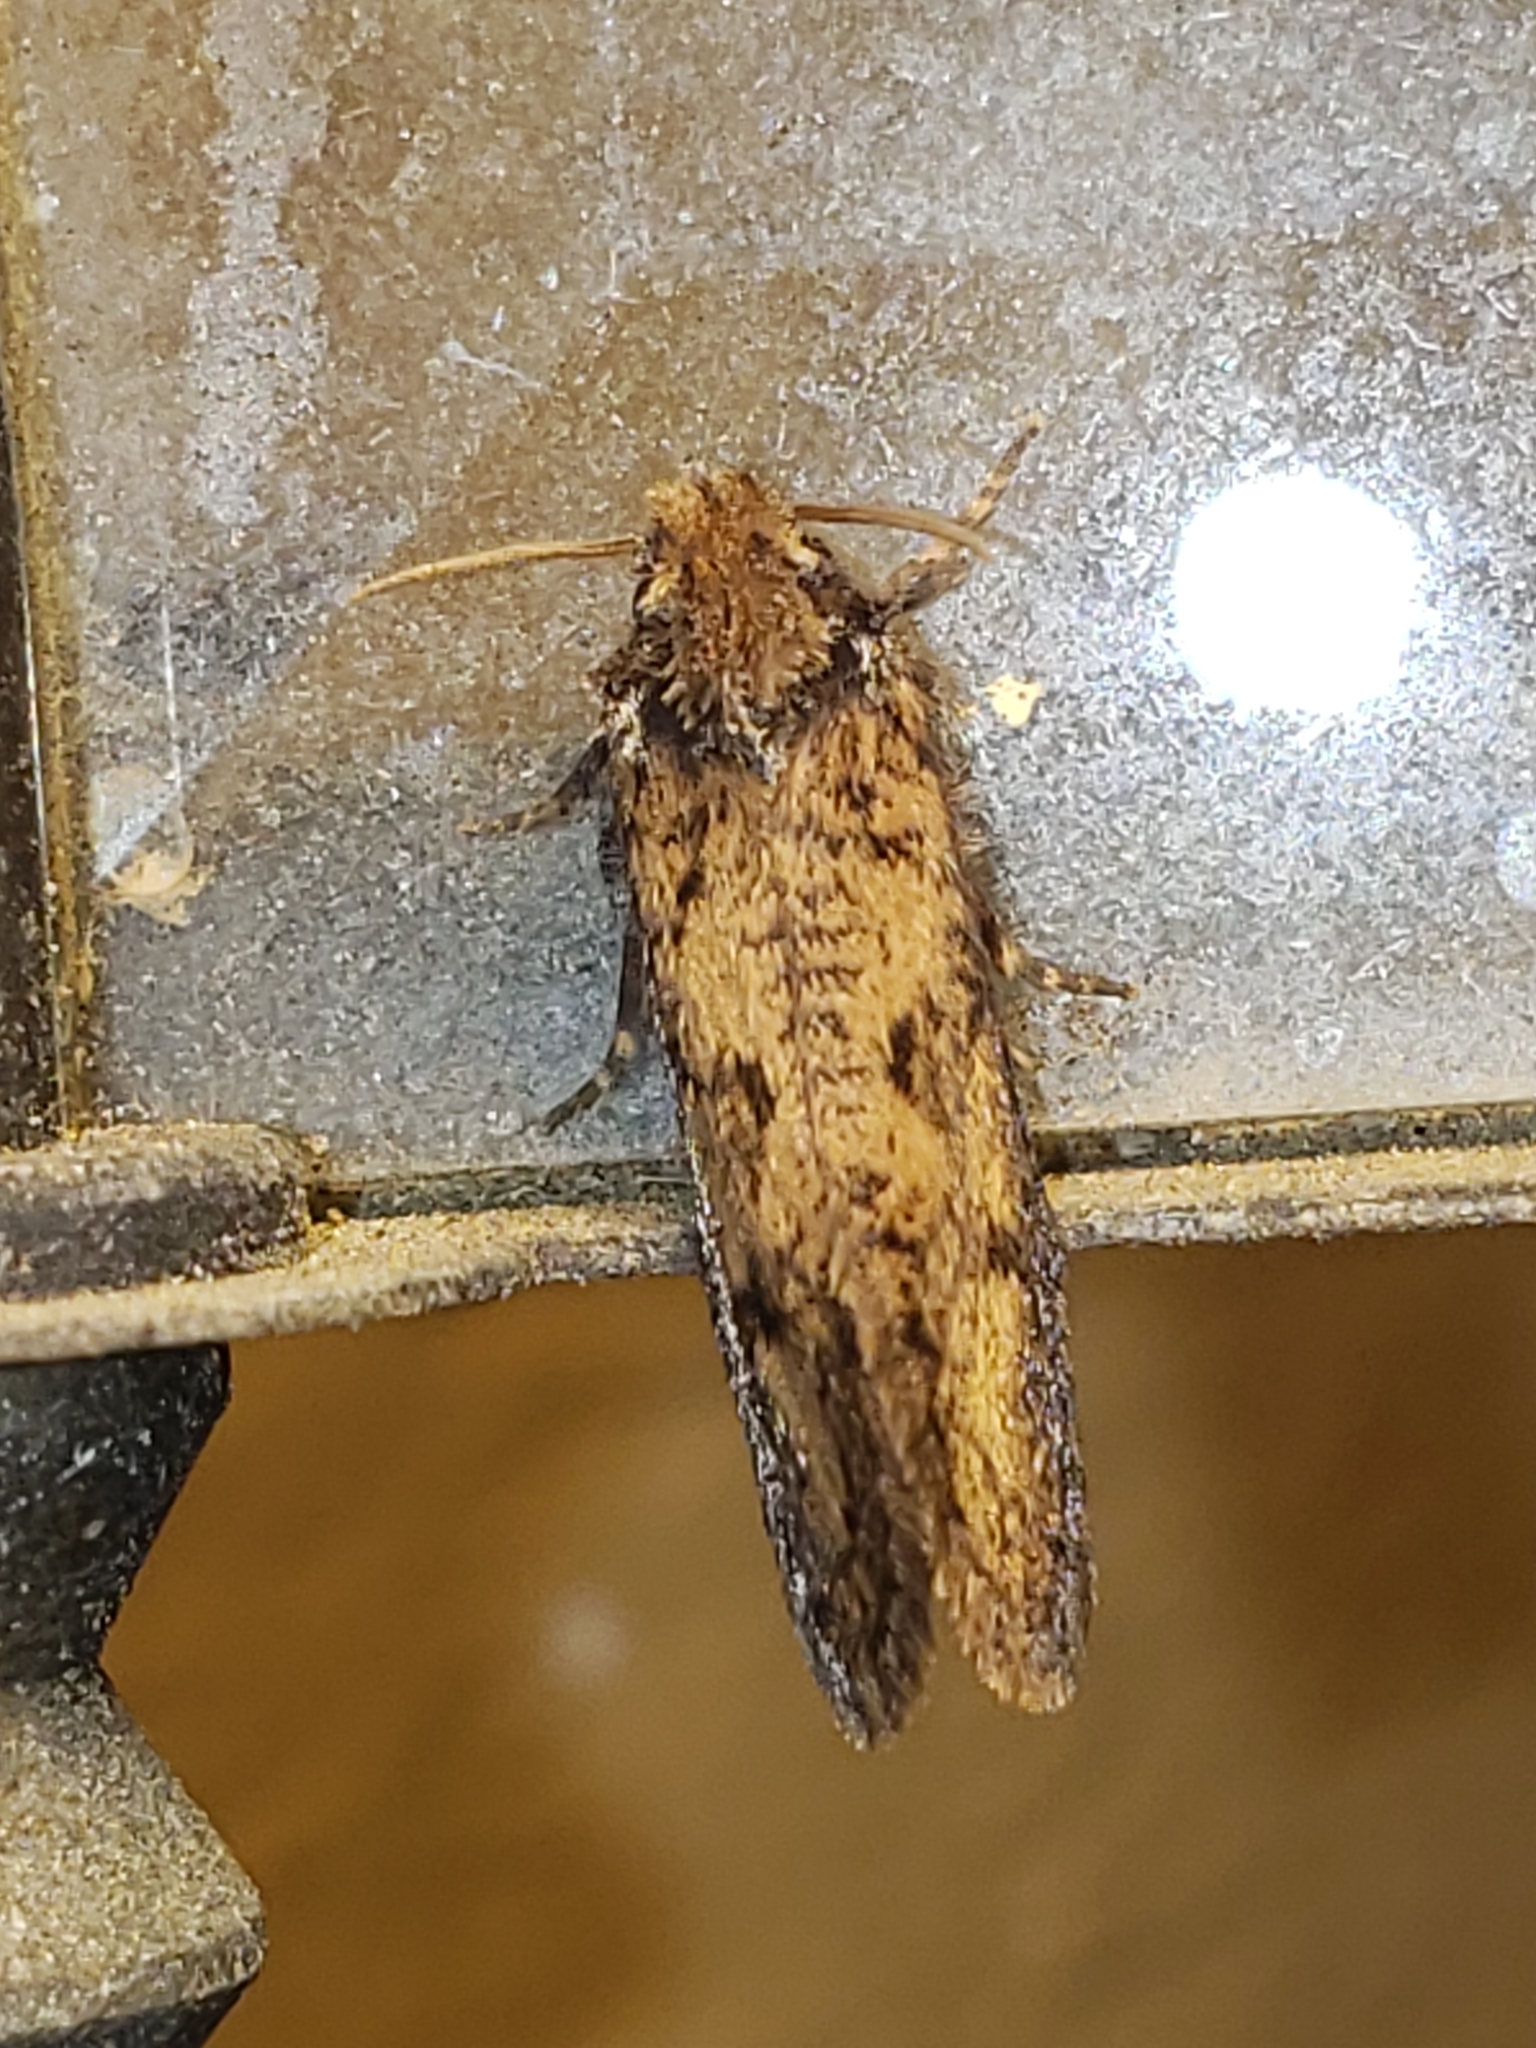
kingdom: Animalia
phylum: Arthropoda
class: Insecta
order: Lepidoptera
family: Tineidae
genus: Acrolophus
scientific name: Acrolophus popeanella
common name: Clemens' grass tubeworm moth
